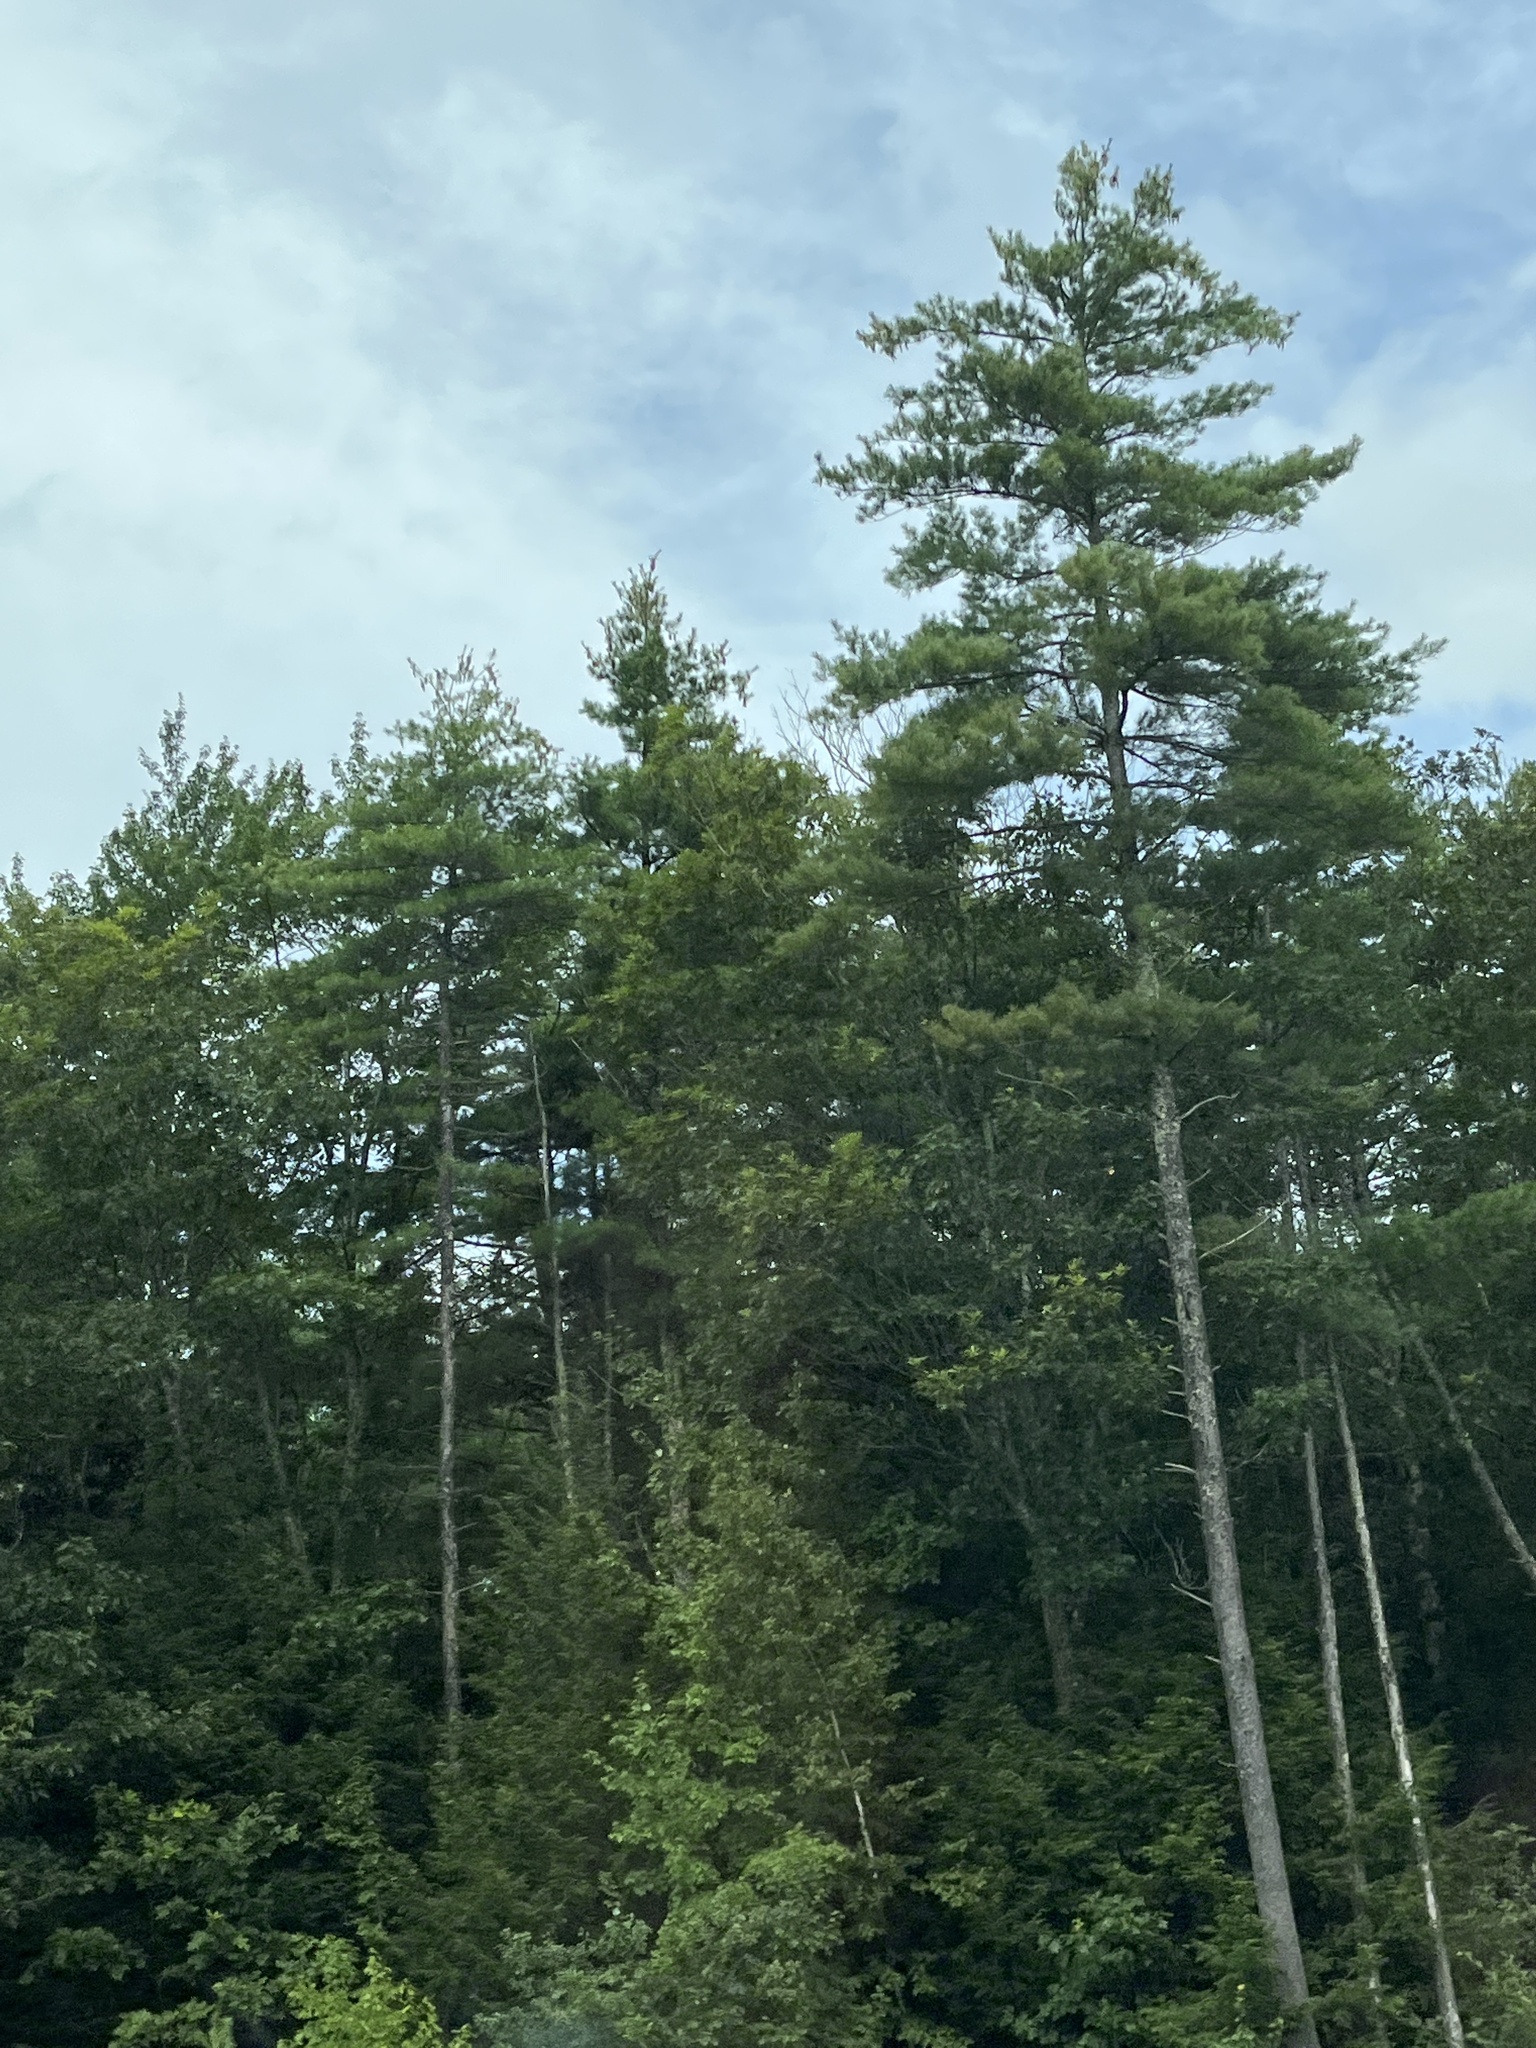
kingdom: Plantae
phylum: Tracheophyta
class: Pinopsida
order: Pinales
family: Pinaceae
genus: Pinus
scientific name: Pinus strobus
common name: Weymouth pine
